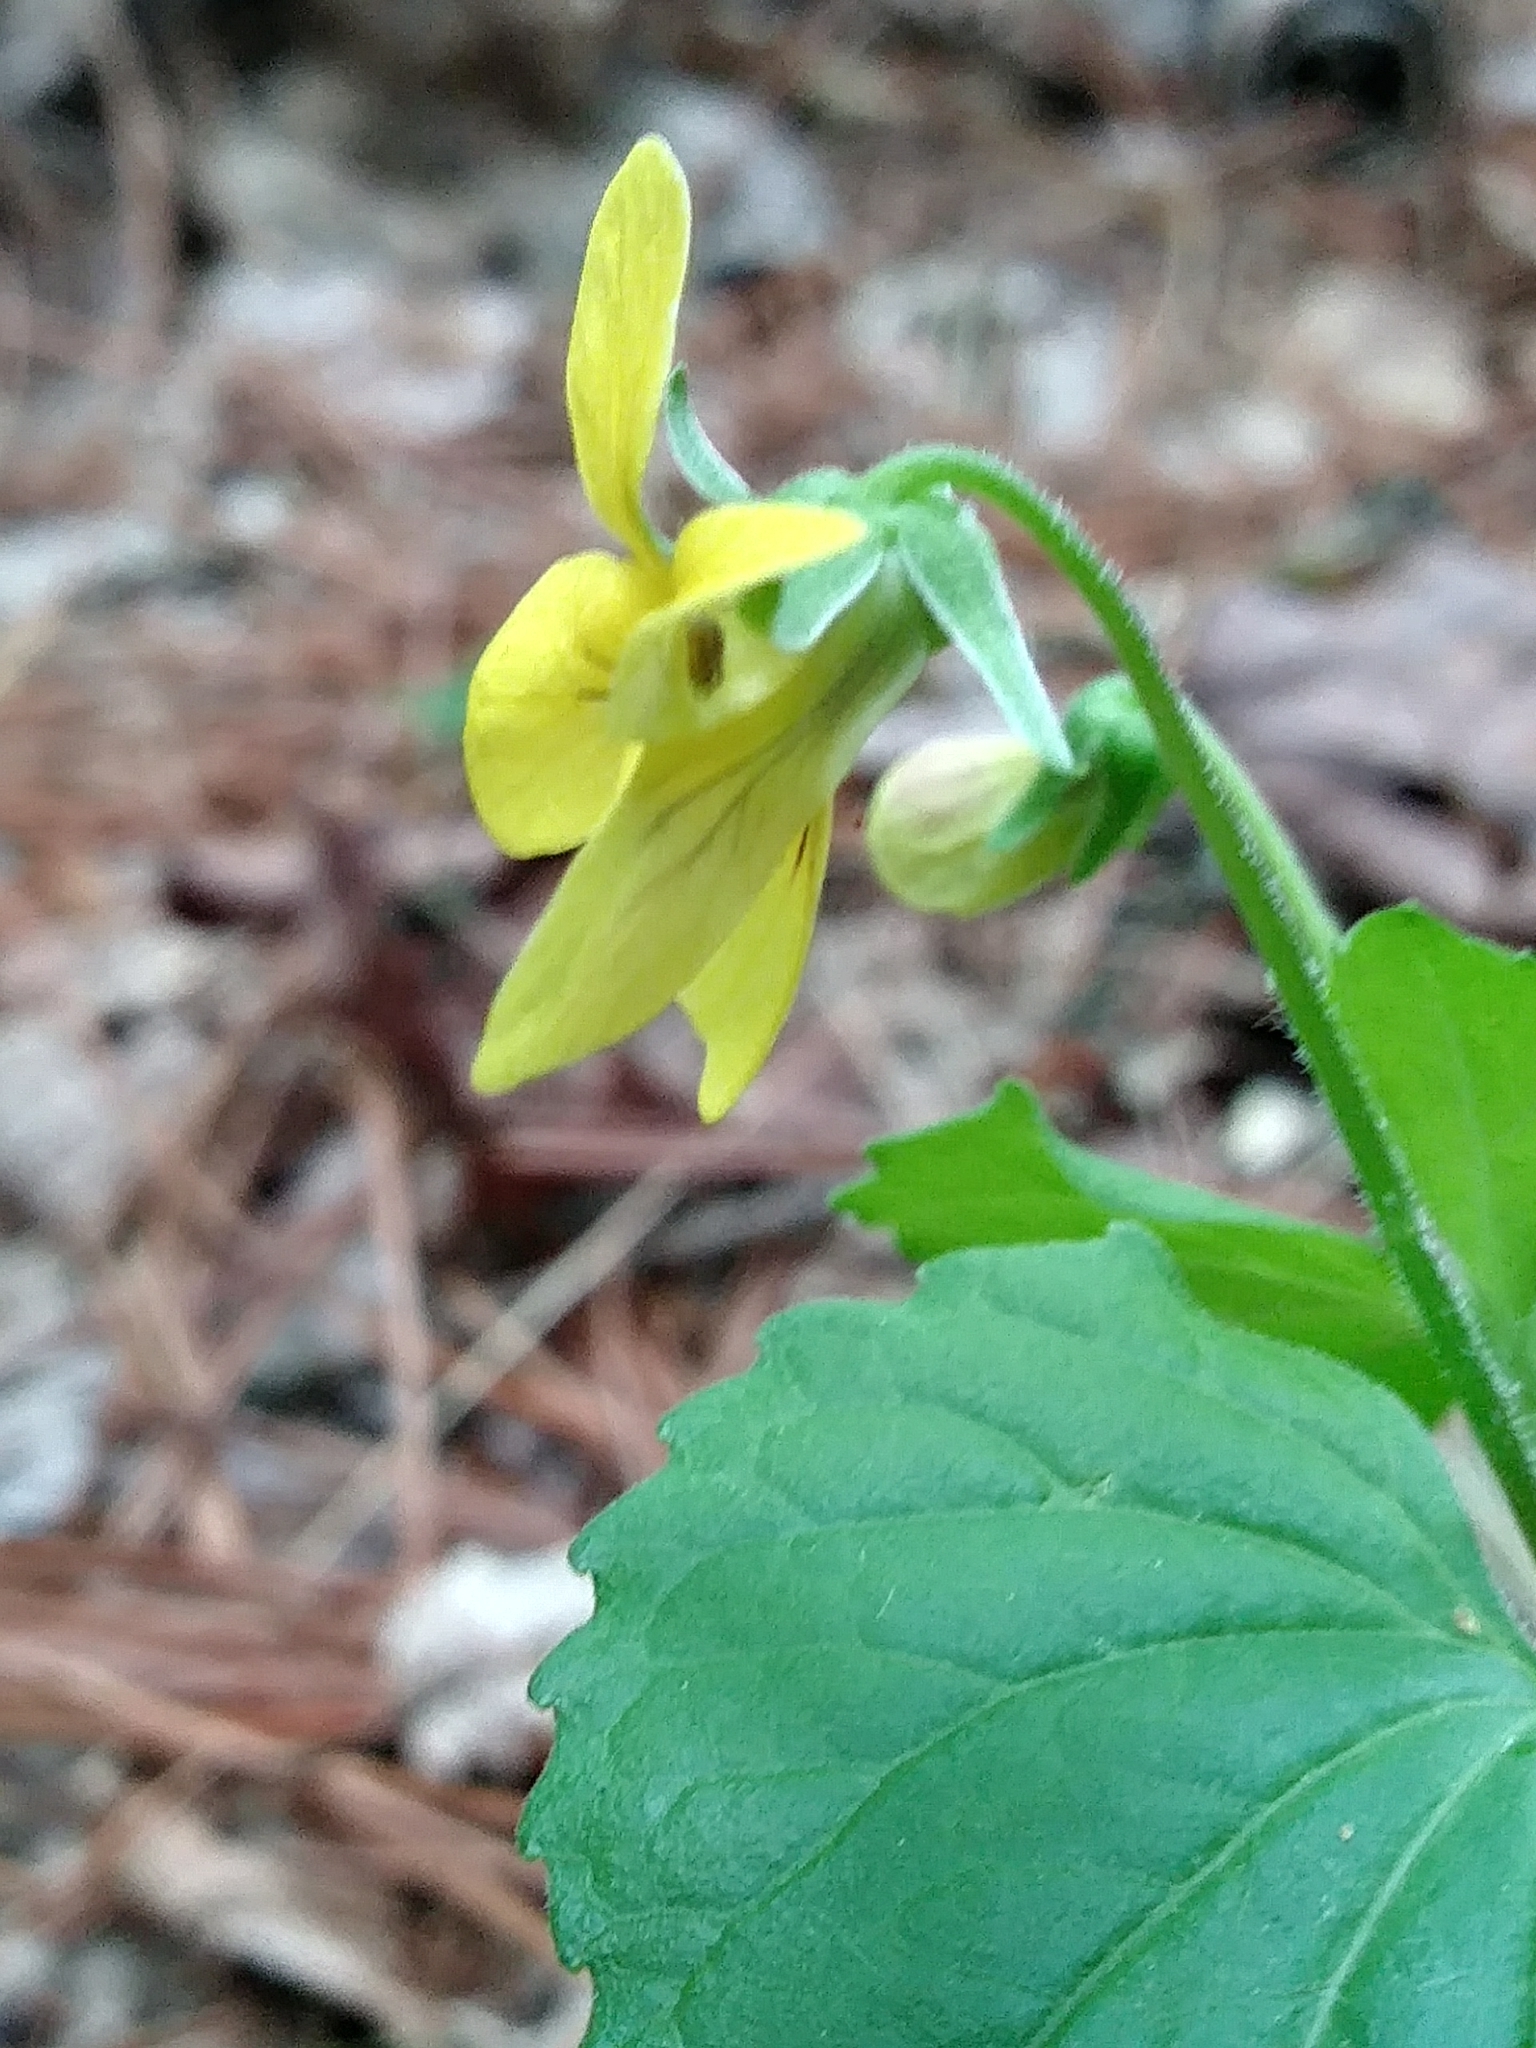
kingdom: Plantae
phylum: Tracheophyta
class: Magnoliopsida
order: Malpighiales
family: Violaceae
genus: Viola
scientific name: Viola eriocarpa
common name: Smooth yellow violet
